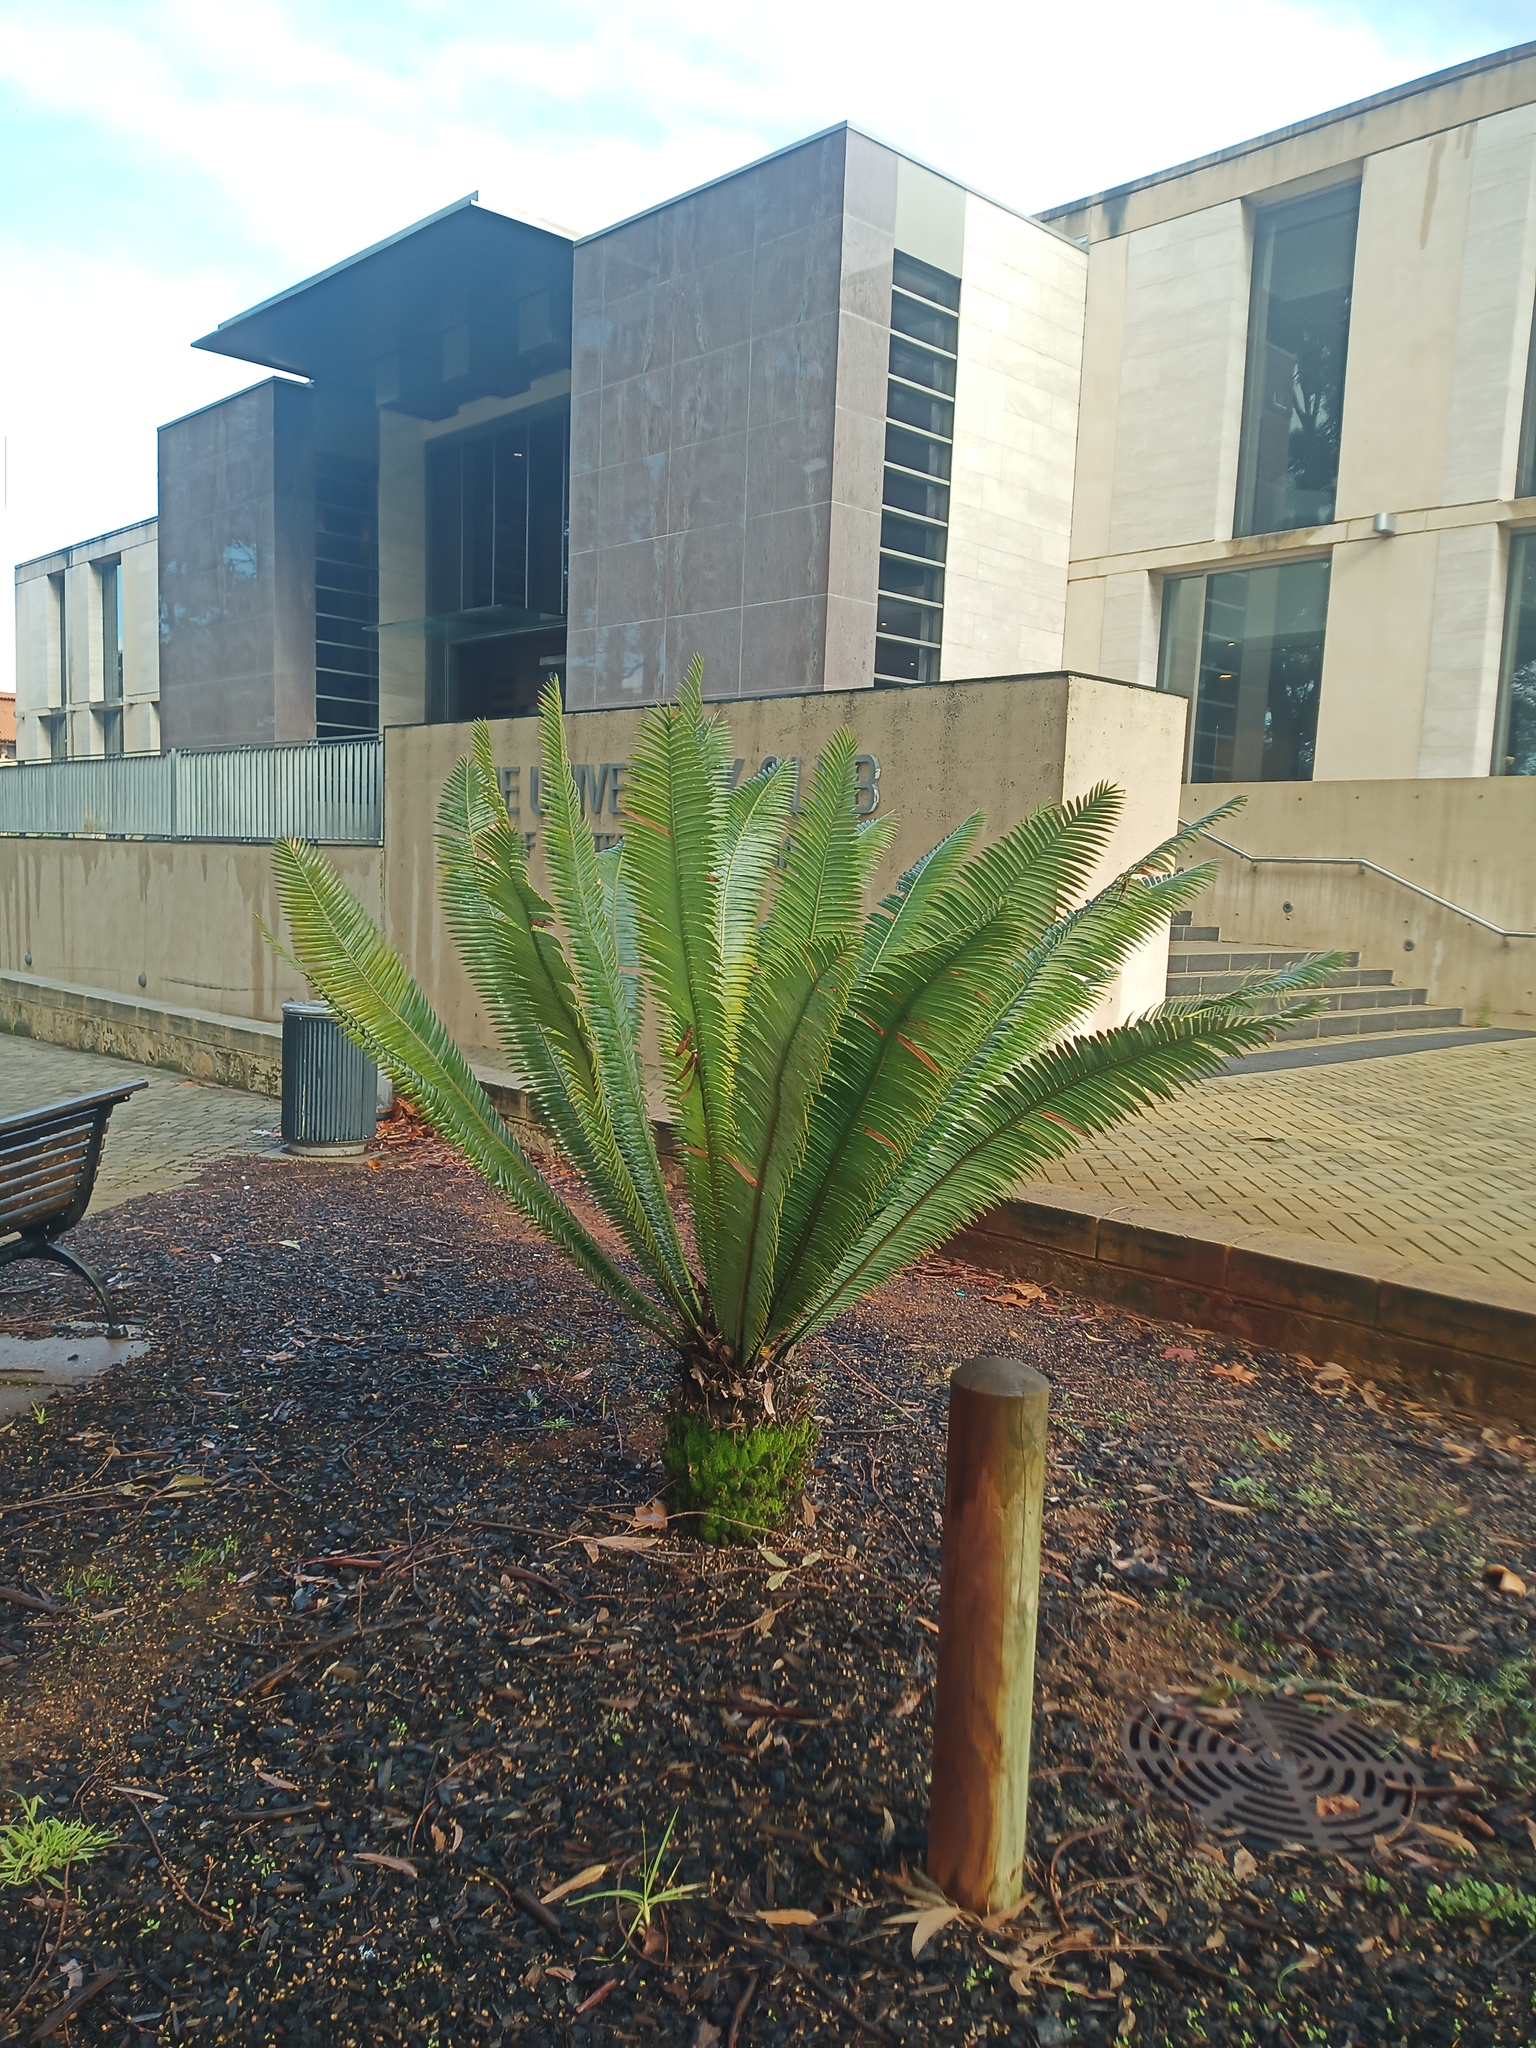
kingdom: Plantae
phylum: Bryophyta
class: Bryopsida
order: Pottiales
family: Pottiaceae
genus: Syntrichia
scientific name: Syntrichia pagorum
